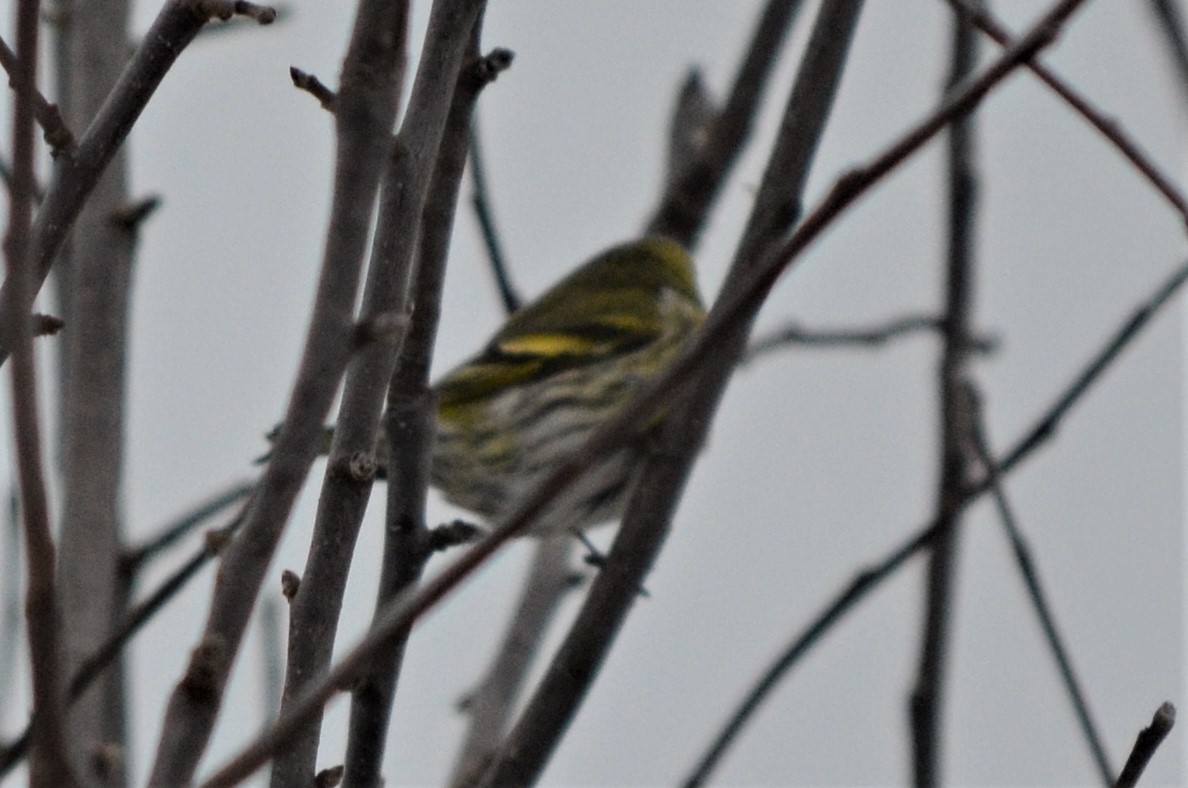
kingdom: Animalia
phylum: Chordata
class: Aves
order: Passeriformes
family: Fringillidae
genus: Spinus
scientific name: Spinus spinus
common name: Eurasian siskin
